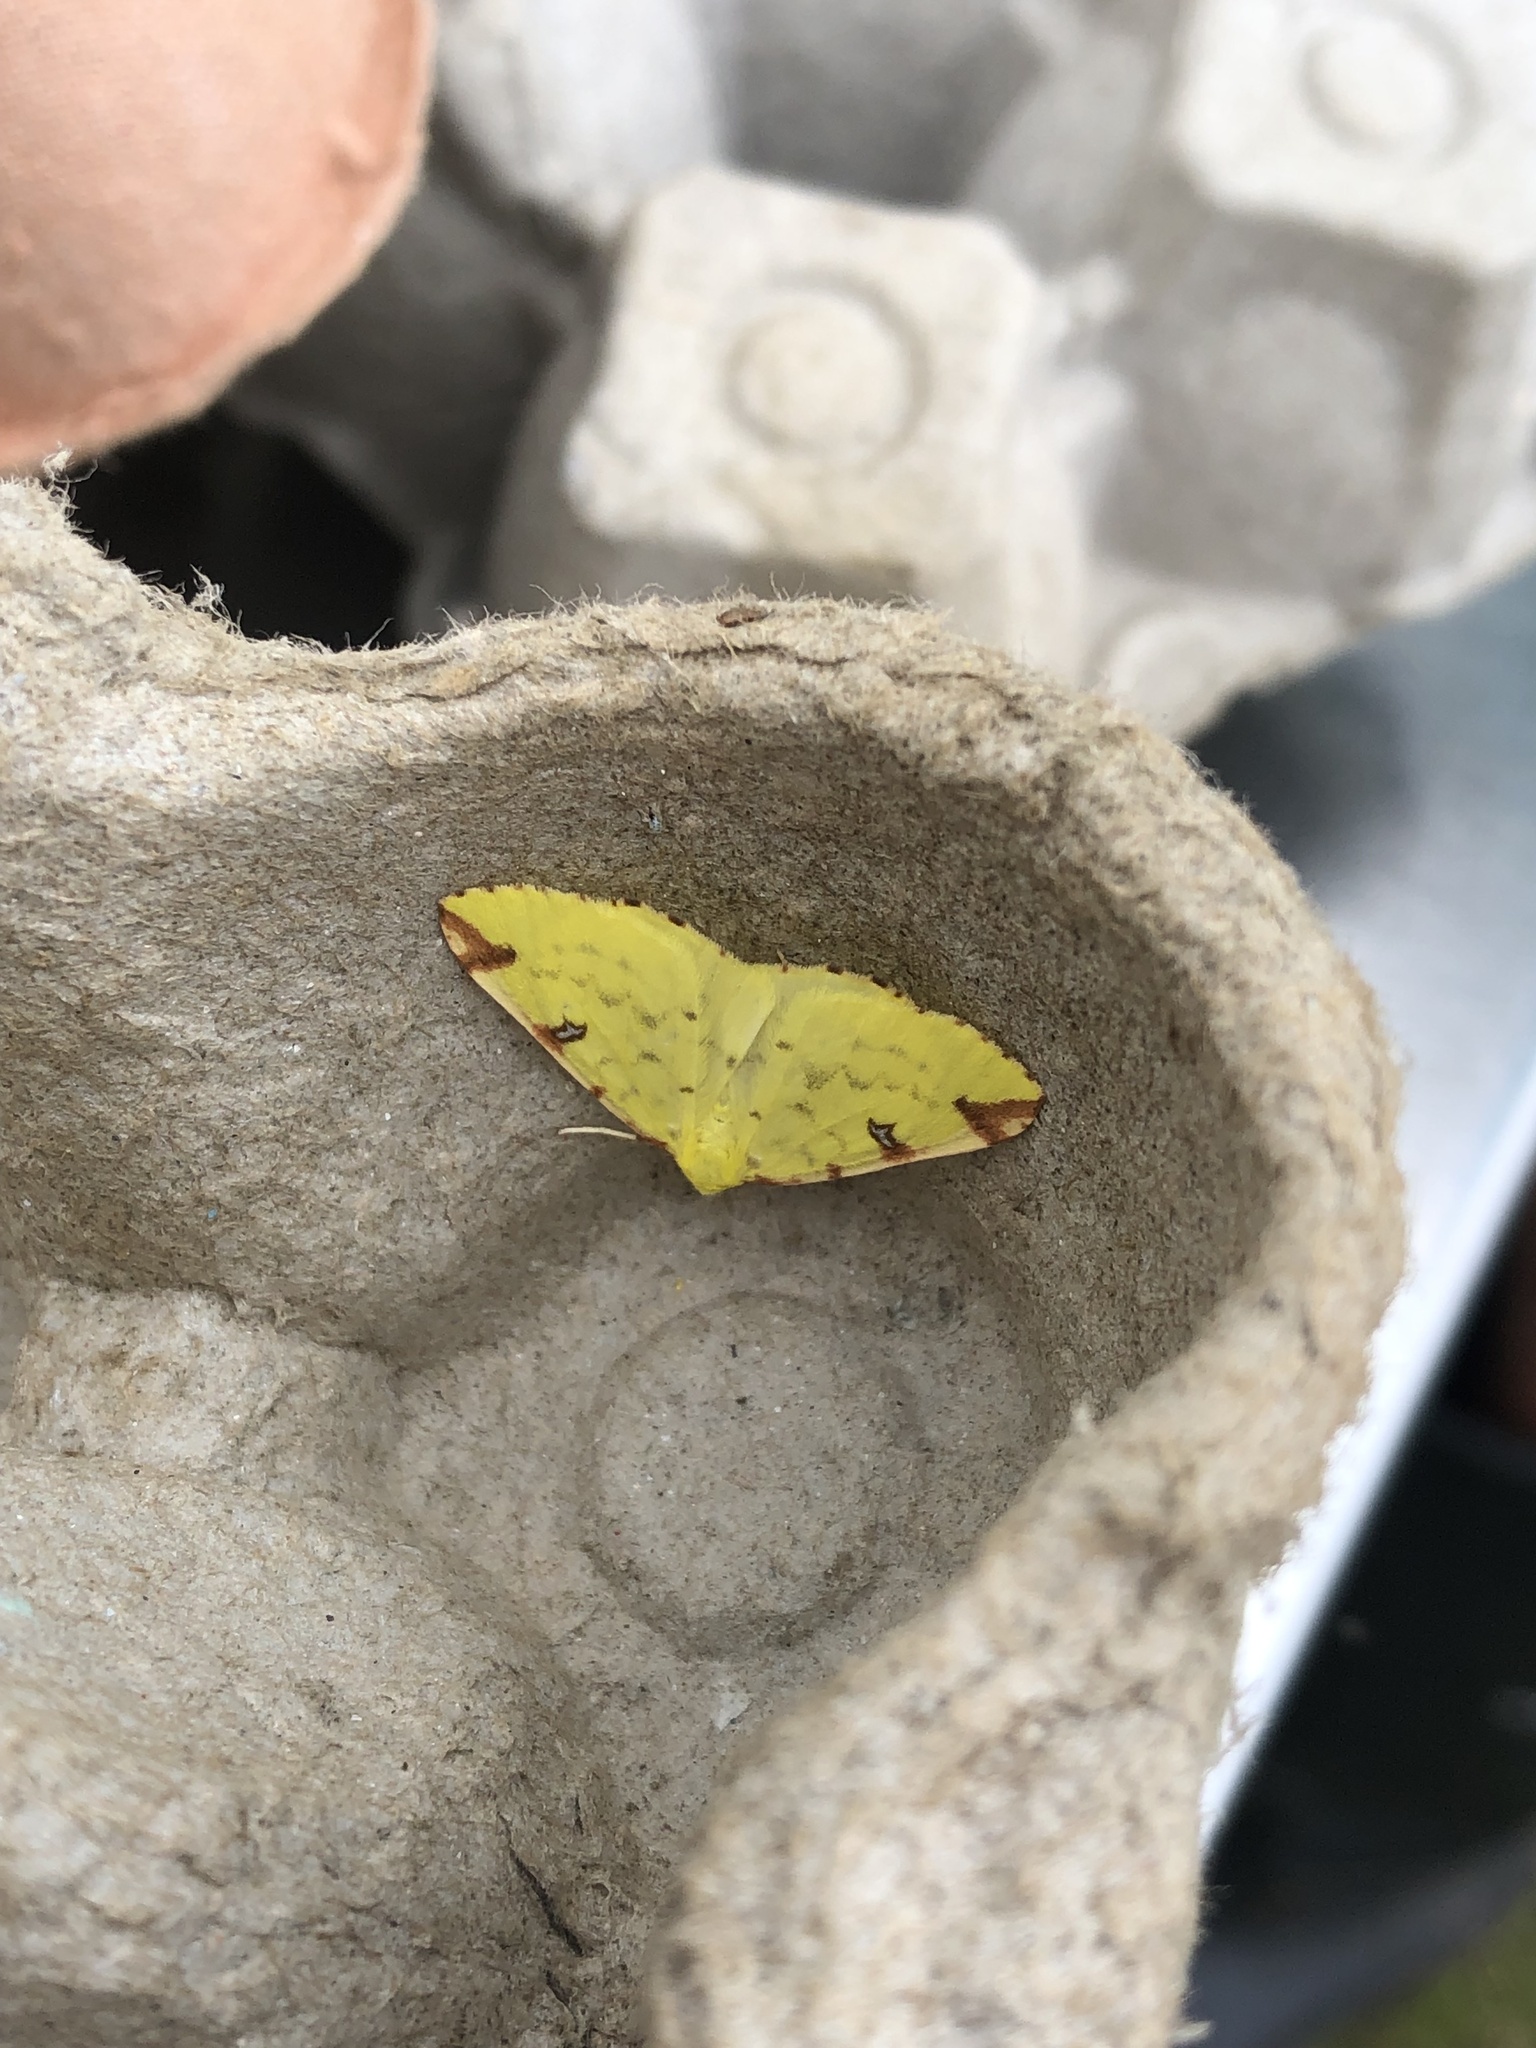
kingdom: Animalia
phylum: Arthropoda
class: Insecta
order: Lepidoptera
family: Geometridae
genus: Opisthograptis
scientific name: Opisthograptis luteolata
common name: Brimstone moth
